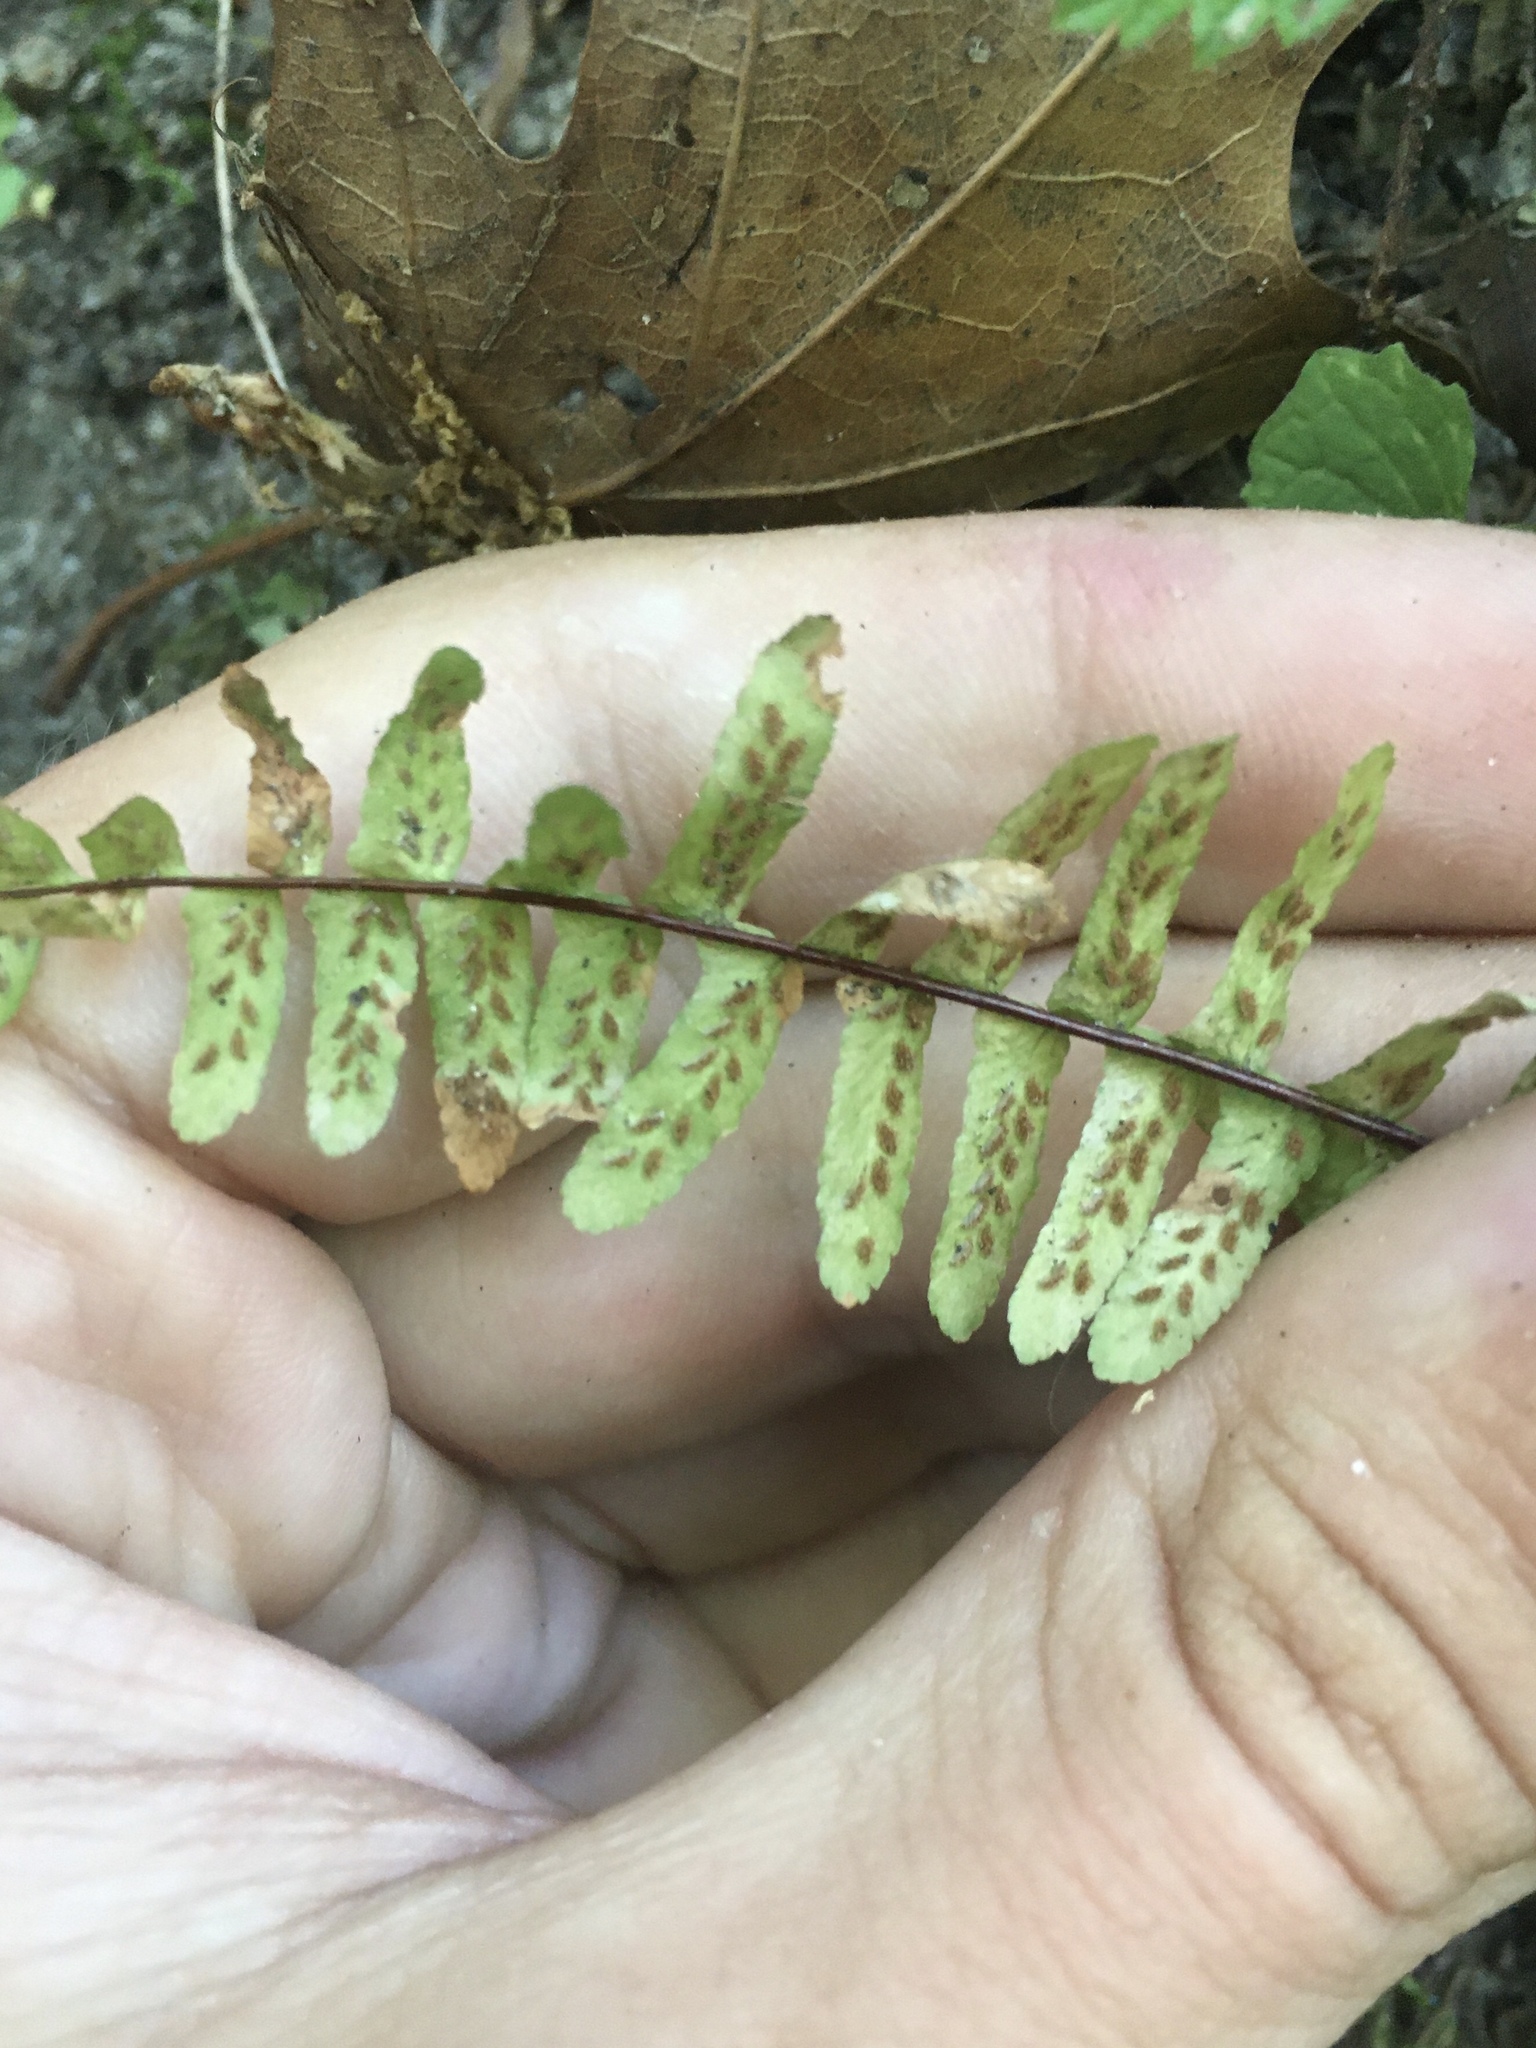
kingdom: Plantae
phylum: Tracheophyta
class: Polypodiopsida
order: Polypodiales
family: Aspleniaceae
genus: Asplenium
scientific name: Asplenium platyneuron
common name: Ebony spleenwort
